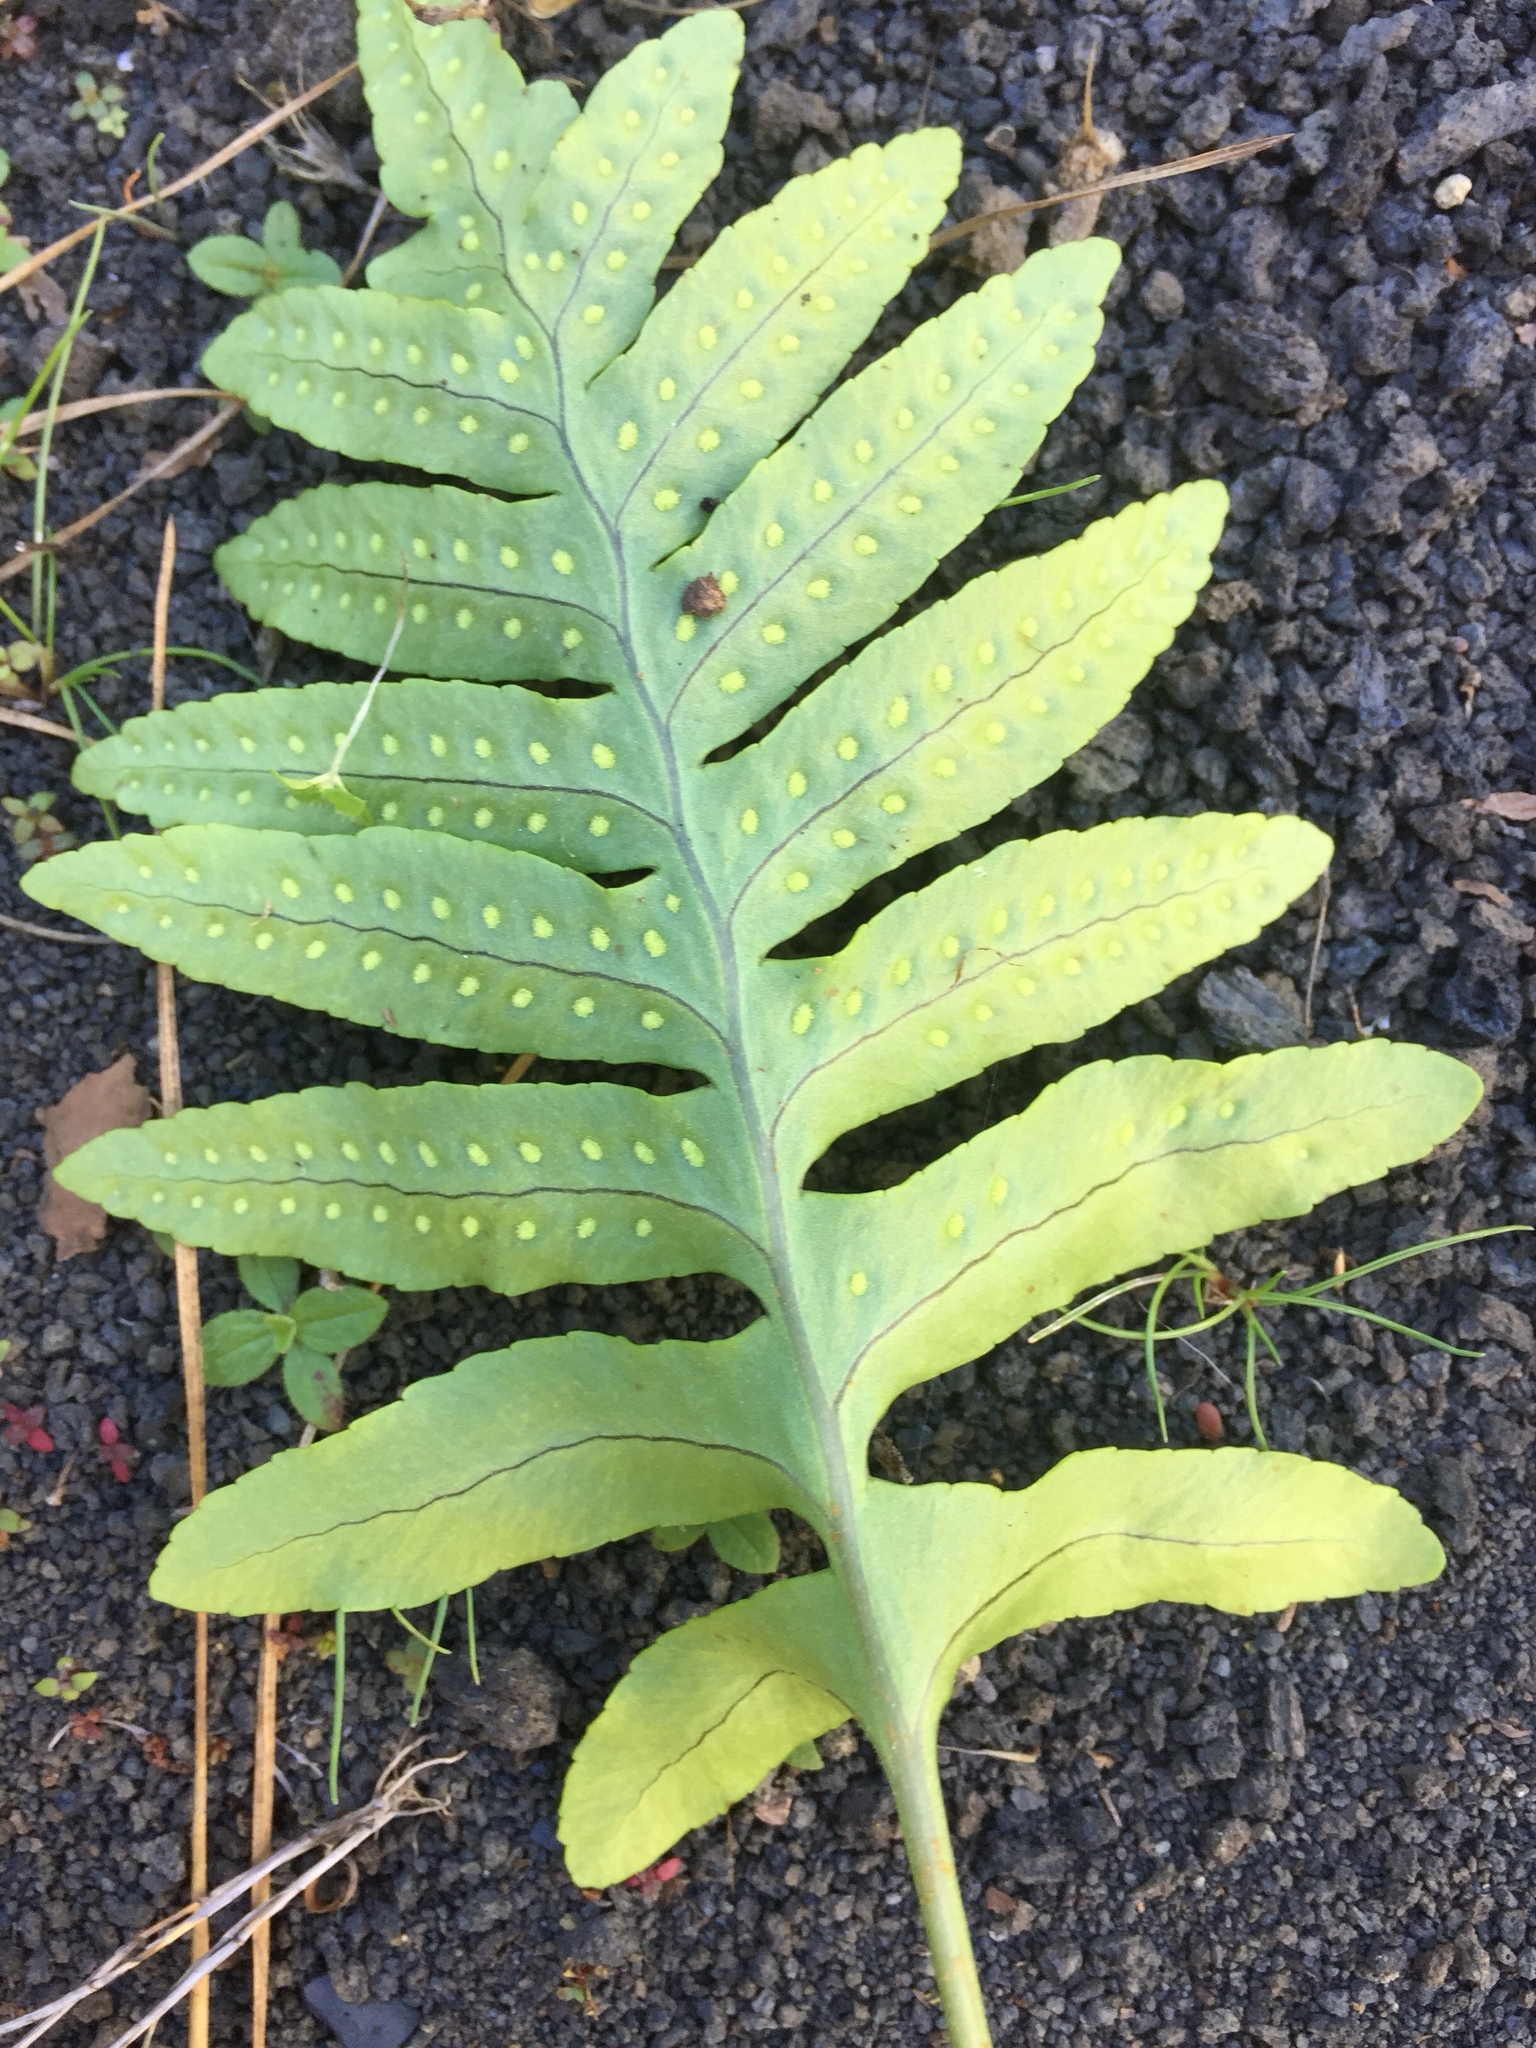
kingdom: Plantae
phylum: Tracheophyta
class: Polypodiopsida
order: Polypodiales
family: Polypodiaceae
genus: Polypodium
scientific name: Polypodium macaronesicum
